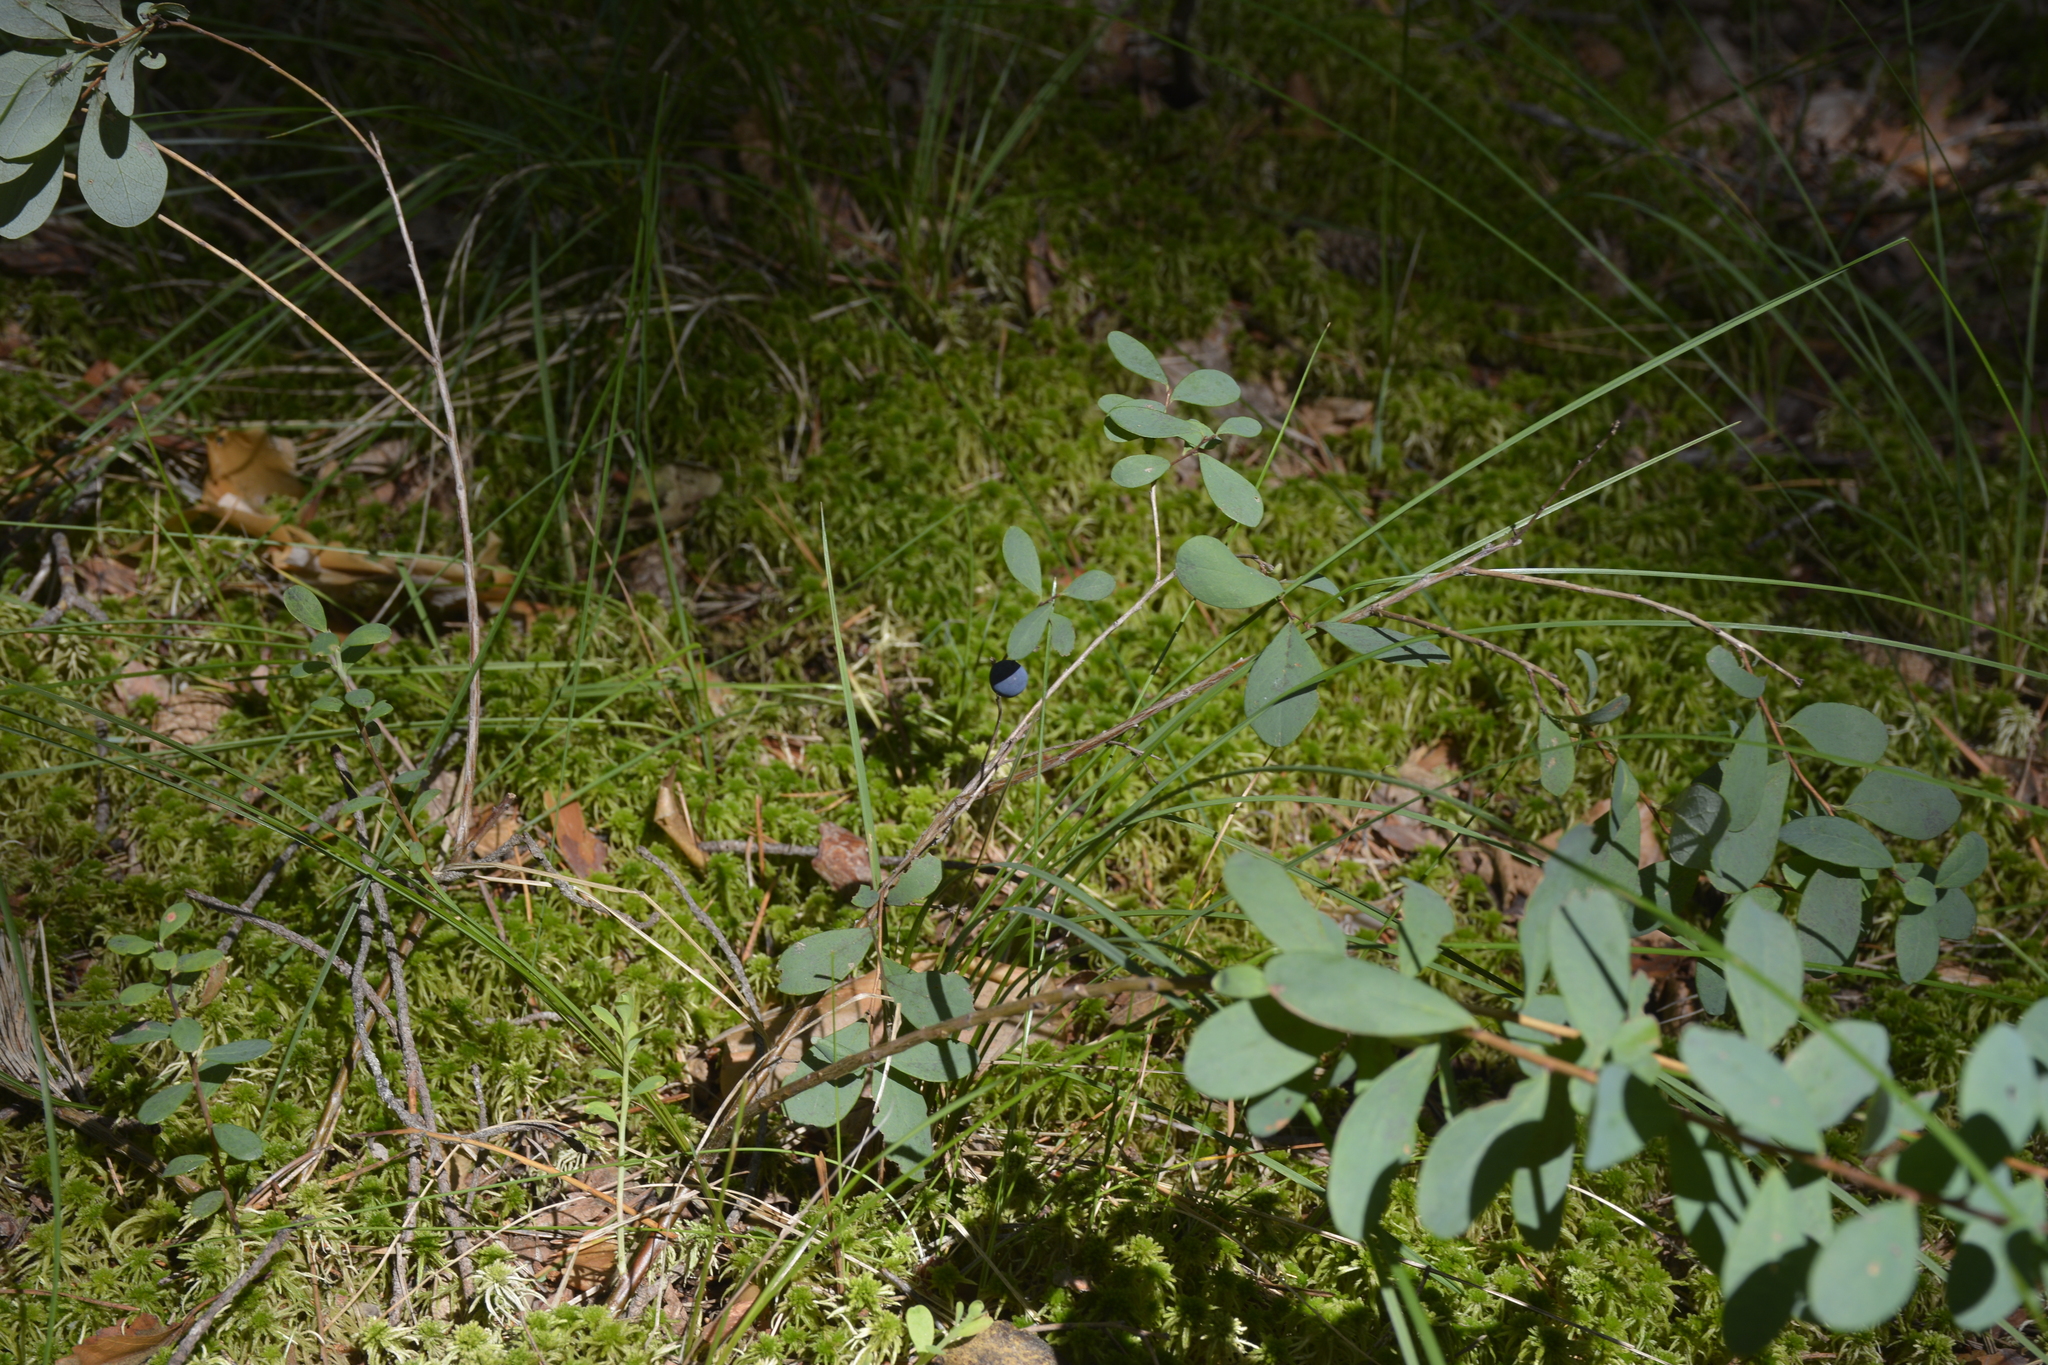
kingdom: Plantae
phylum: Tracheophyta
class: Magnoliopsida
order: Ericales
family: Ericaceae
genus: Vaccinium
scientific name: Vaccinium uliginosum
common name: Bog bilberry
